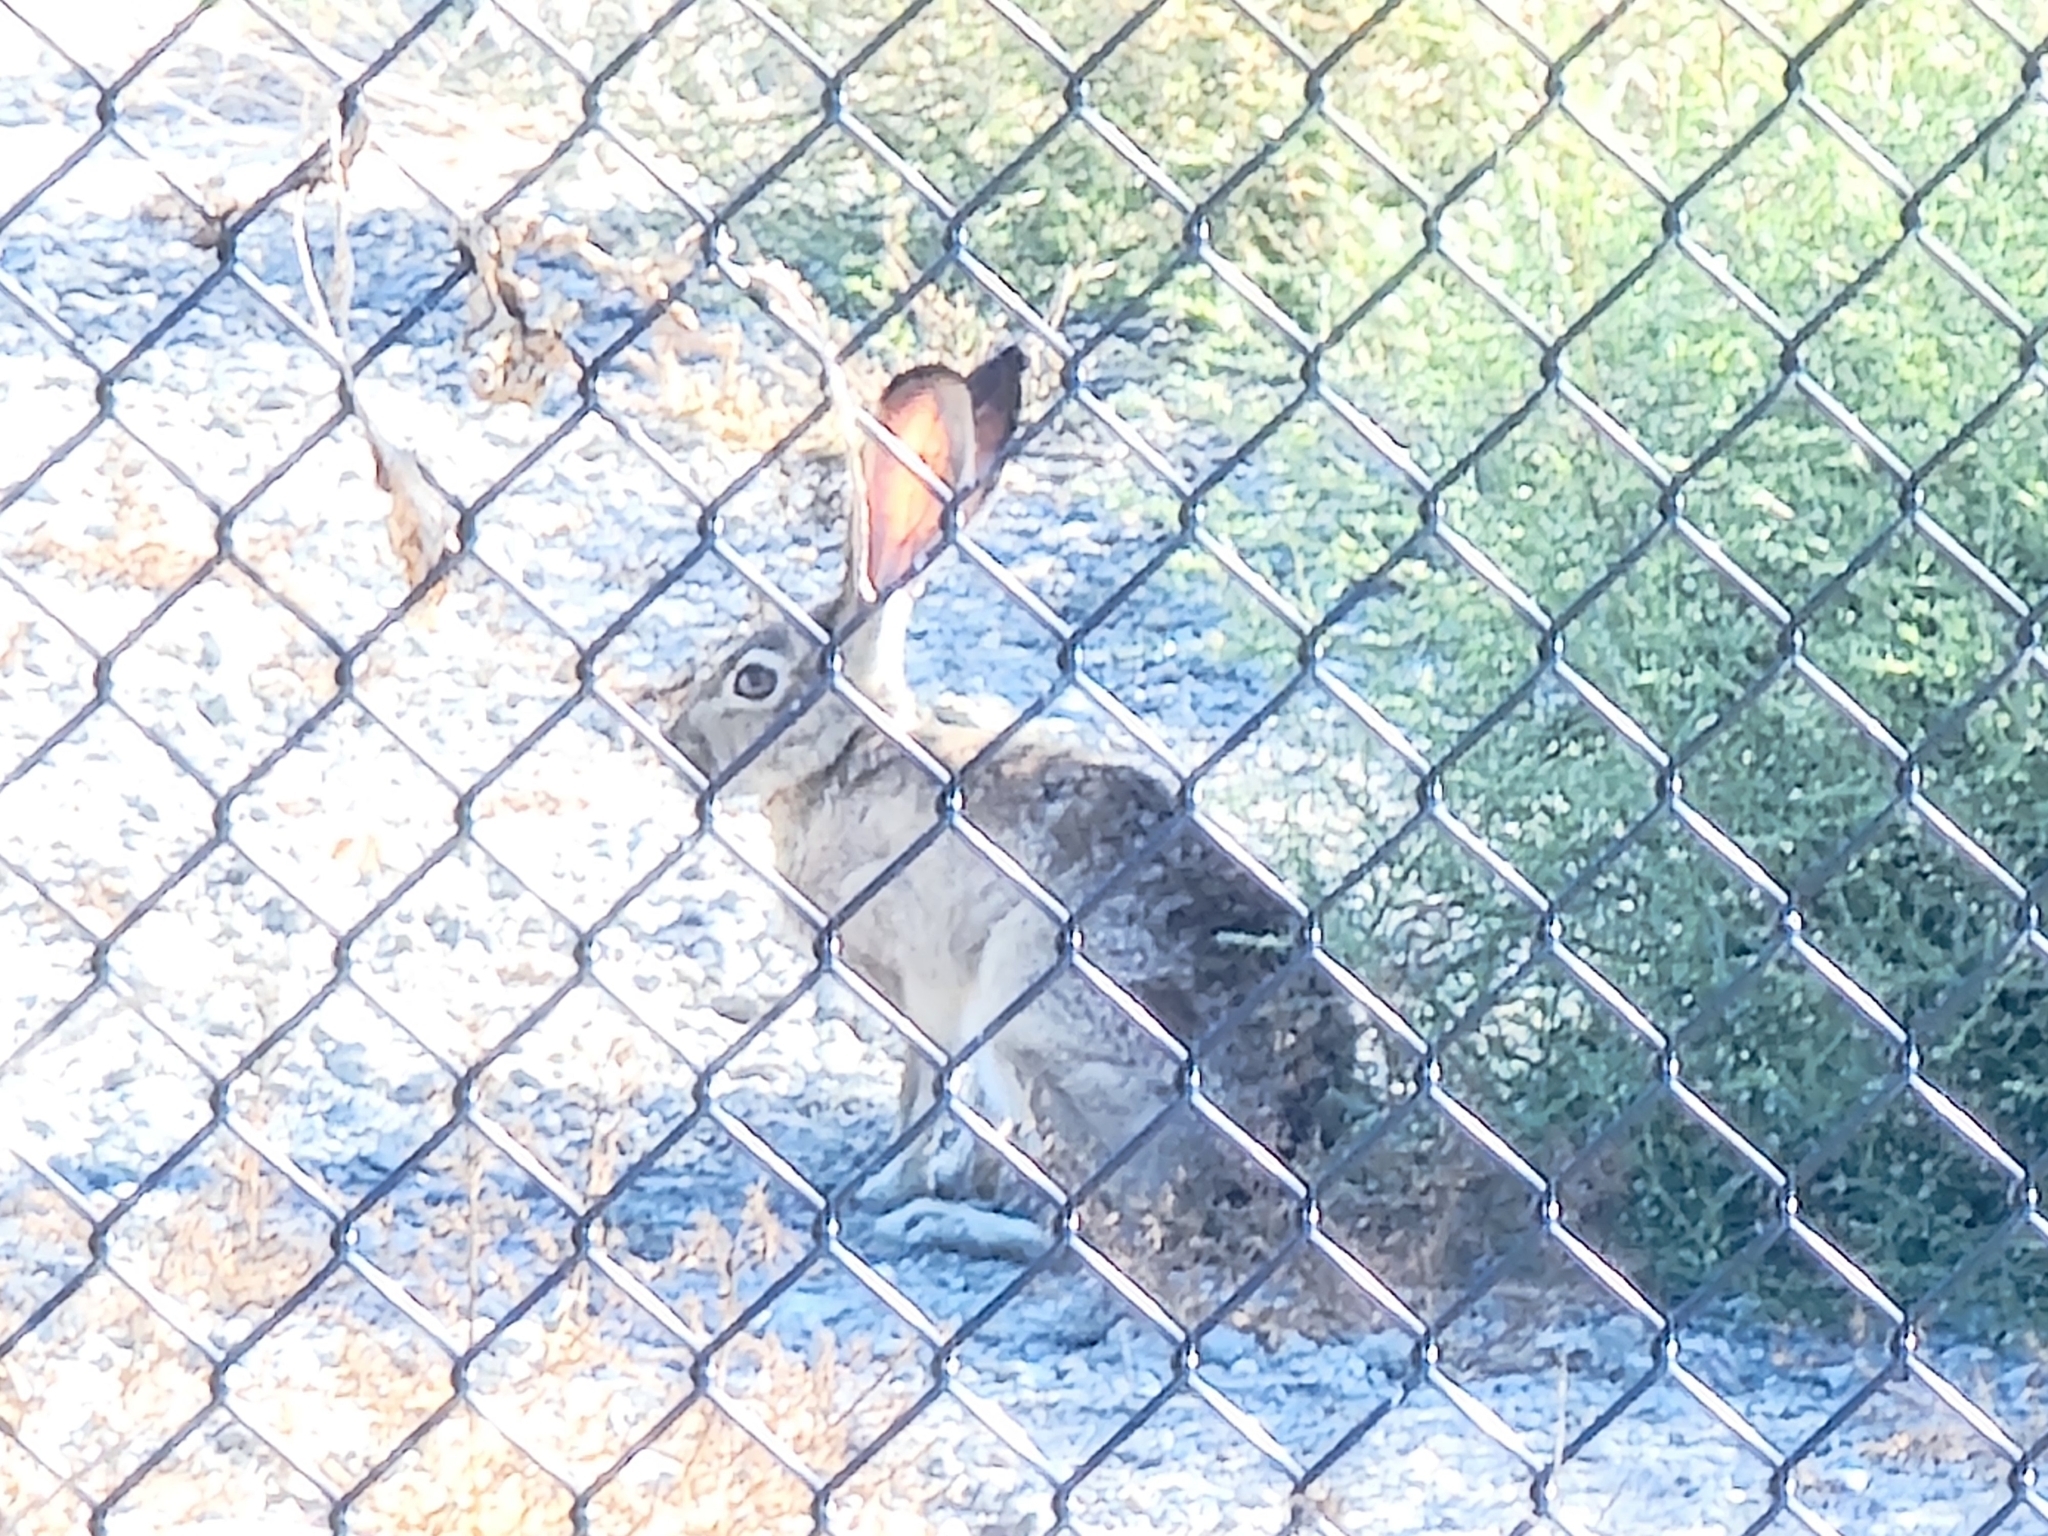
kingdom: Animalia
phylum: Chordata
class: Mammalia
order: Lagomorpha
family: Leporidae
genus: Lepus
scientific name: Lepus californicus
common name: Black-tailed jackrabbit
